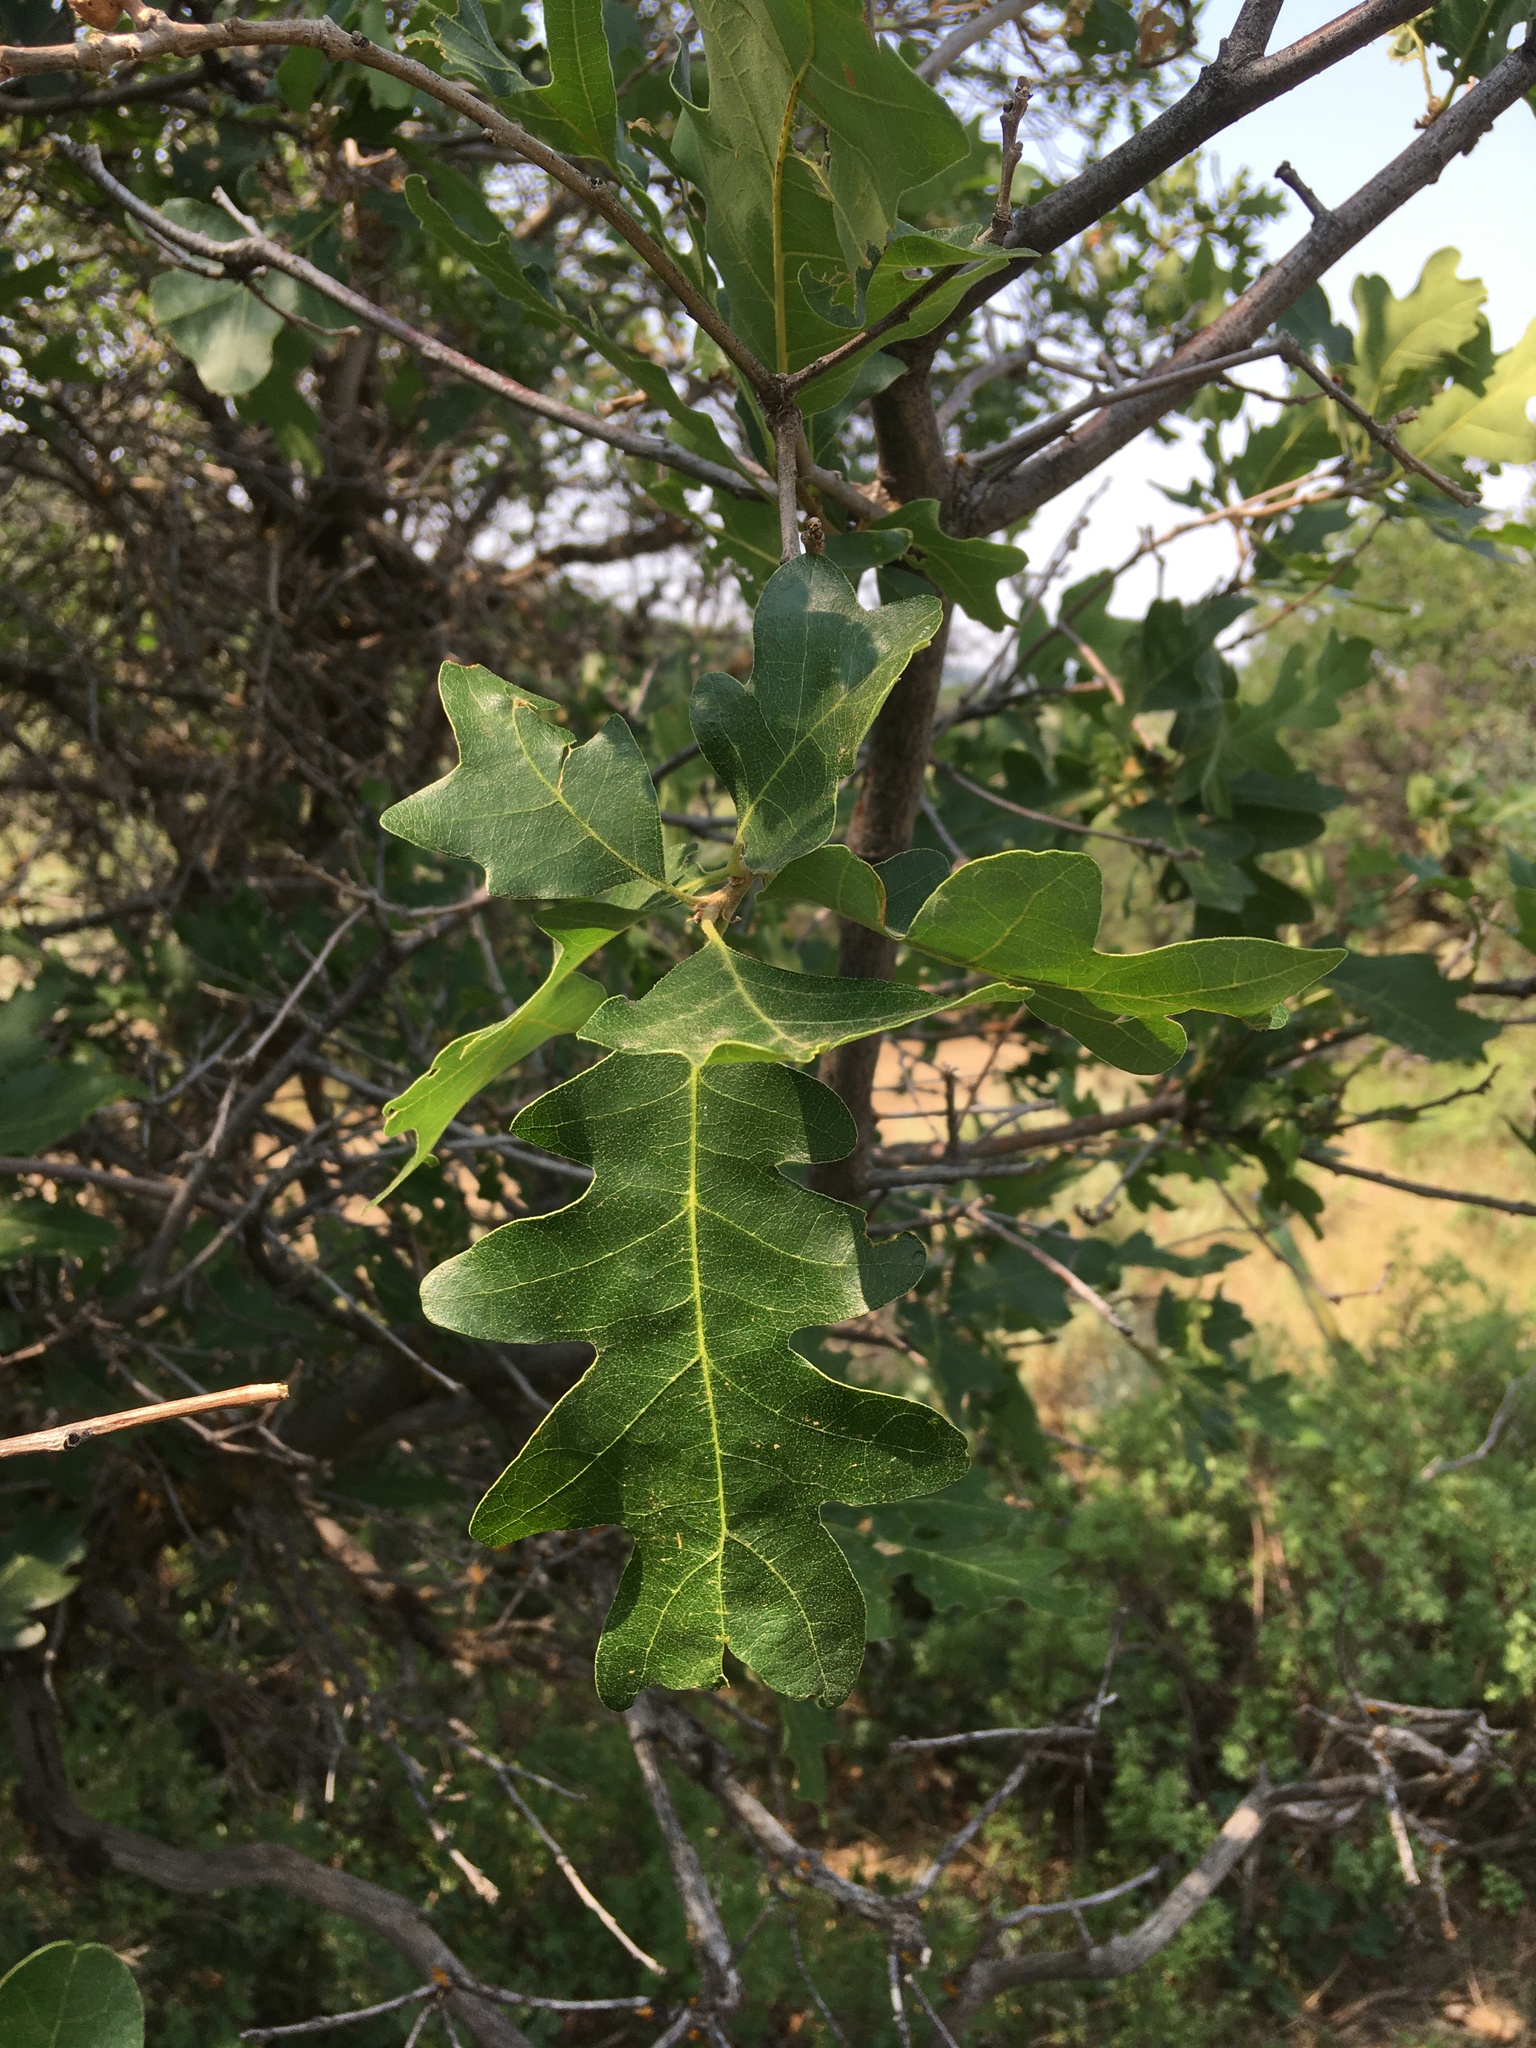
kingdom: Plantae
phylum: Tracheophyta
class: Magnoliopsida
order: Fagales
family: Fagaceae
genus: Quercus
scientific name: Quercus gambelii
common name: Gambel oak
